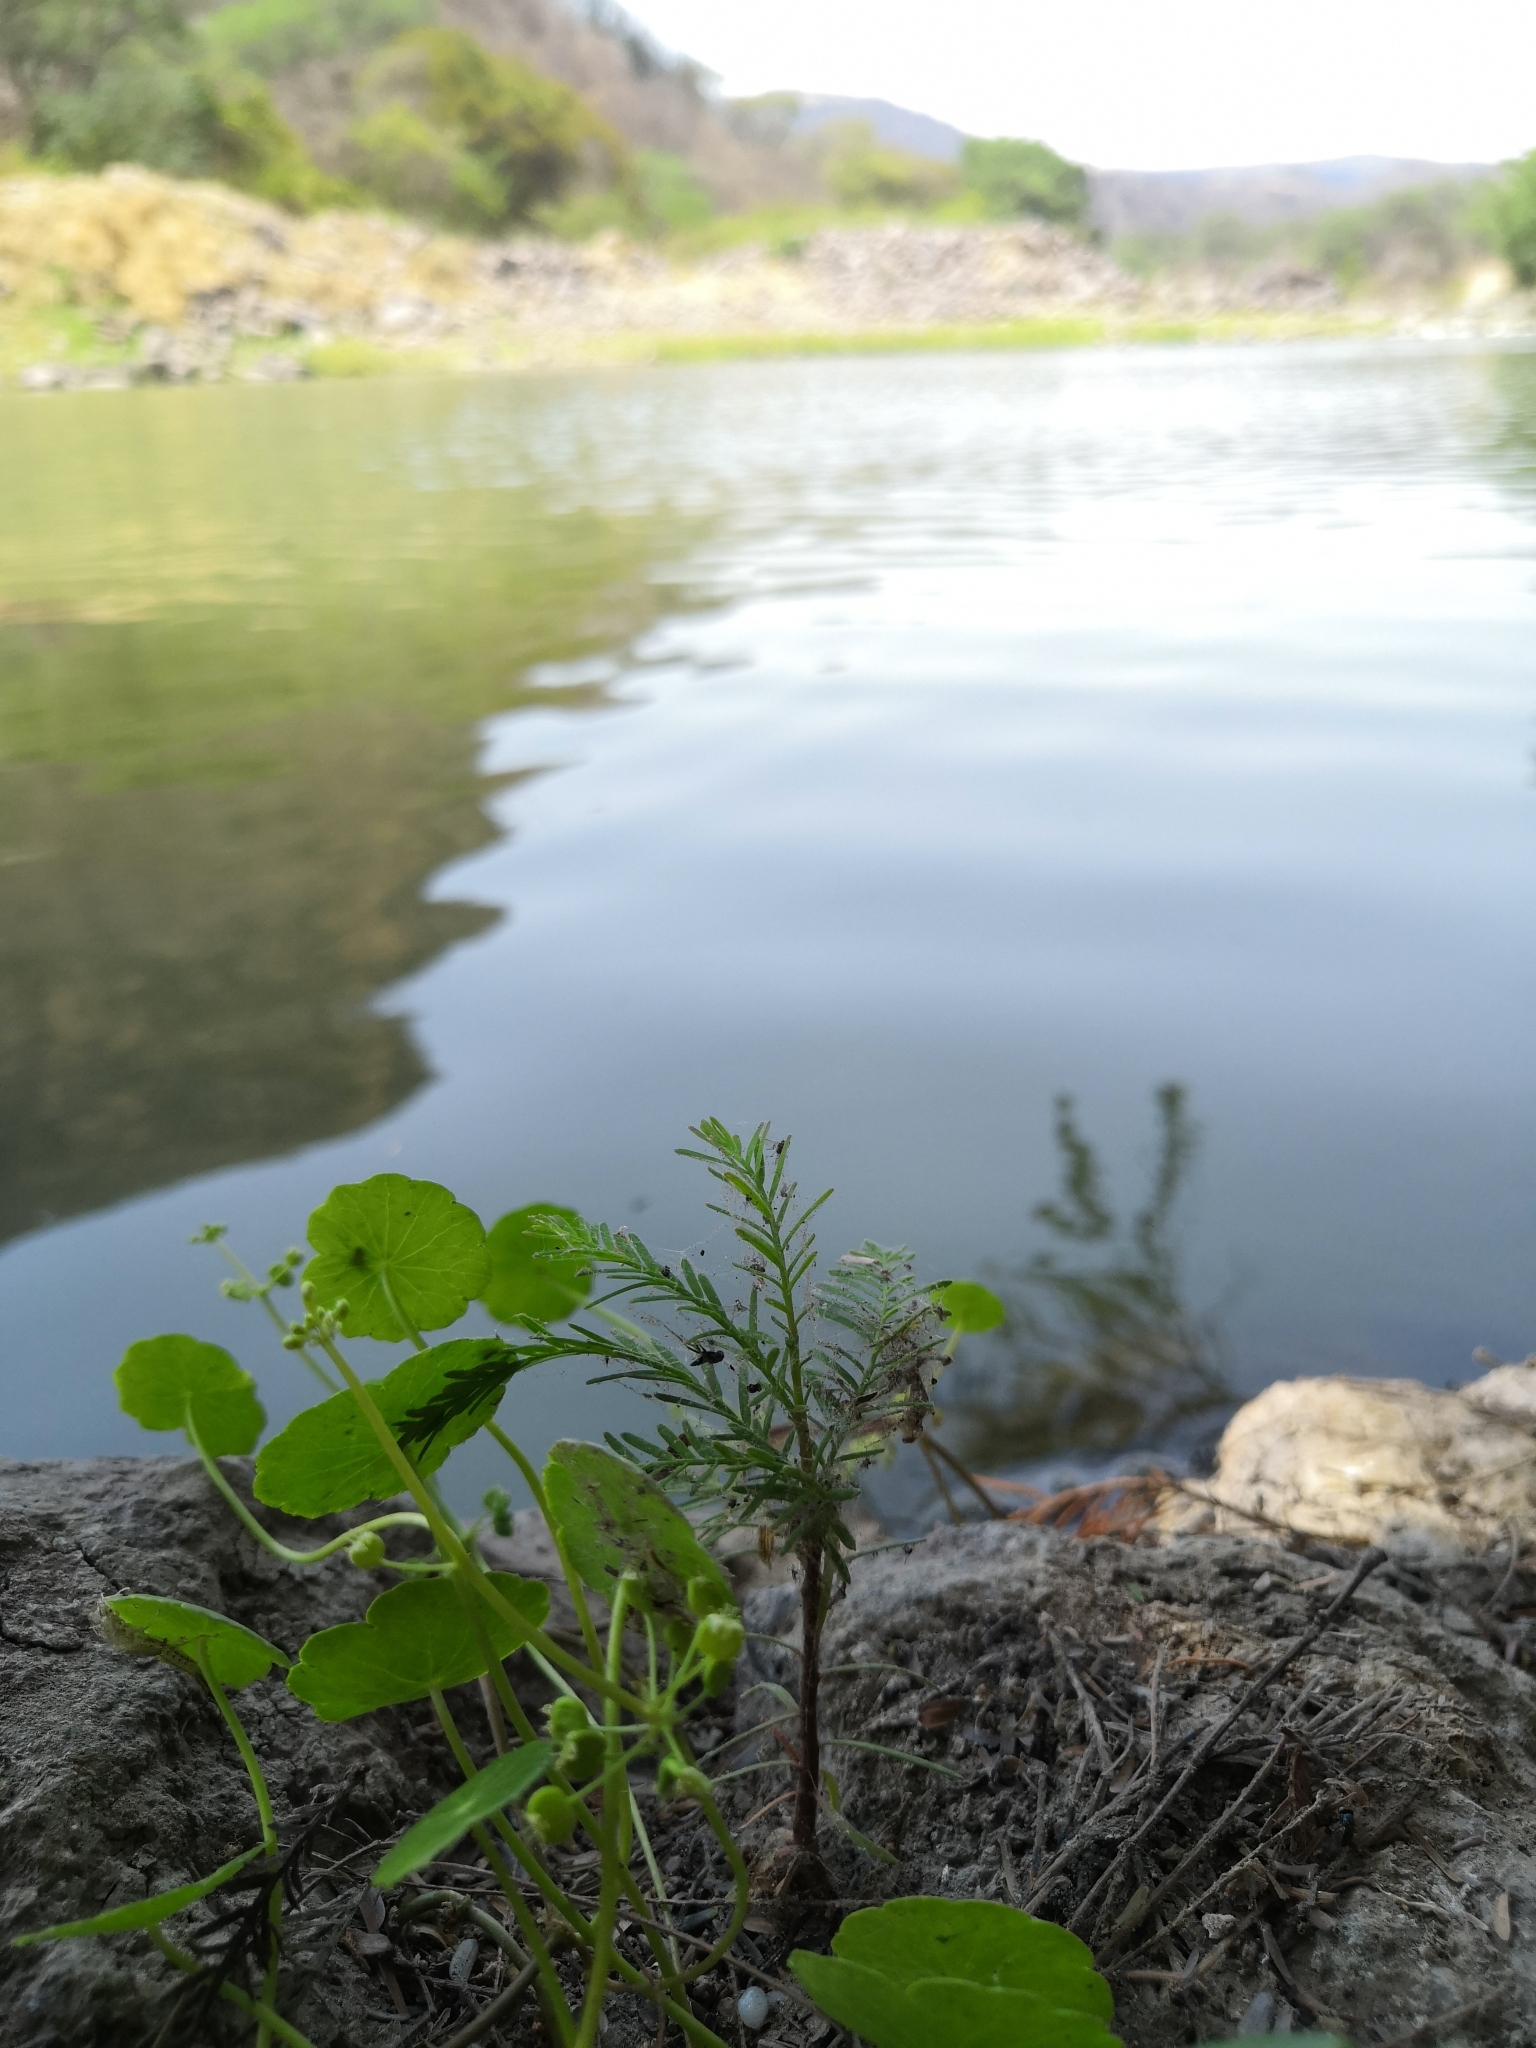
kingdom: Plantae
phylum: Tracheophyta
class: Magnoliopsida
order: Apiales
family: Araliaceae
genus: Hydrocotyle
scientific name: Hydrocotyle umbellata
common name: Water pennywort
